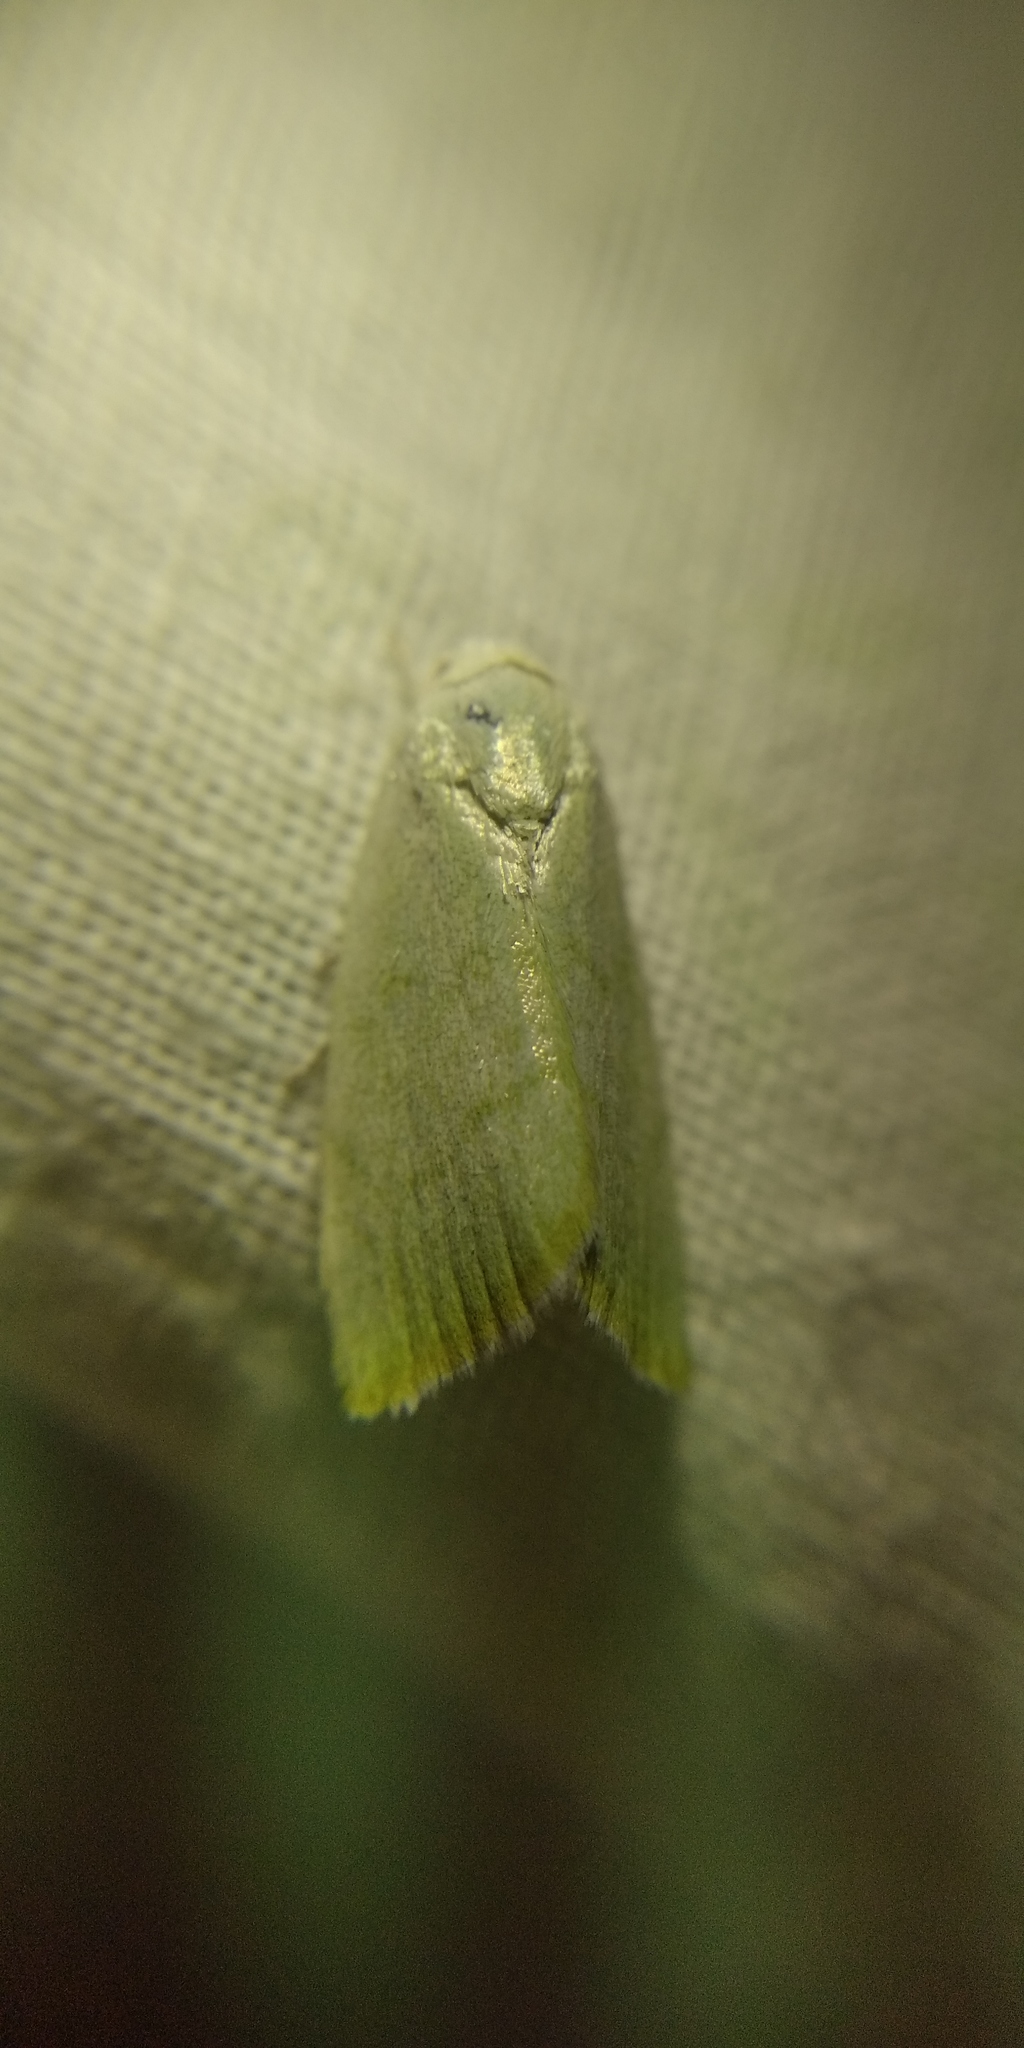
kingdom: Animalia
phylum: Arthropoda
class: Insecta
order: Lepidoptera
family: Nolidae
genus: Earias
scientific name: Earias vernana
